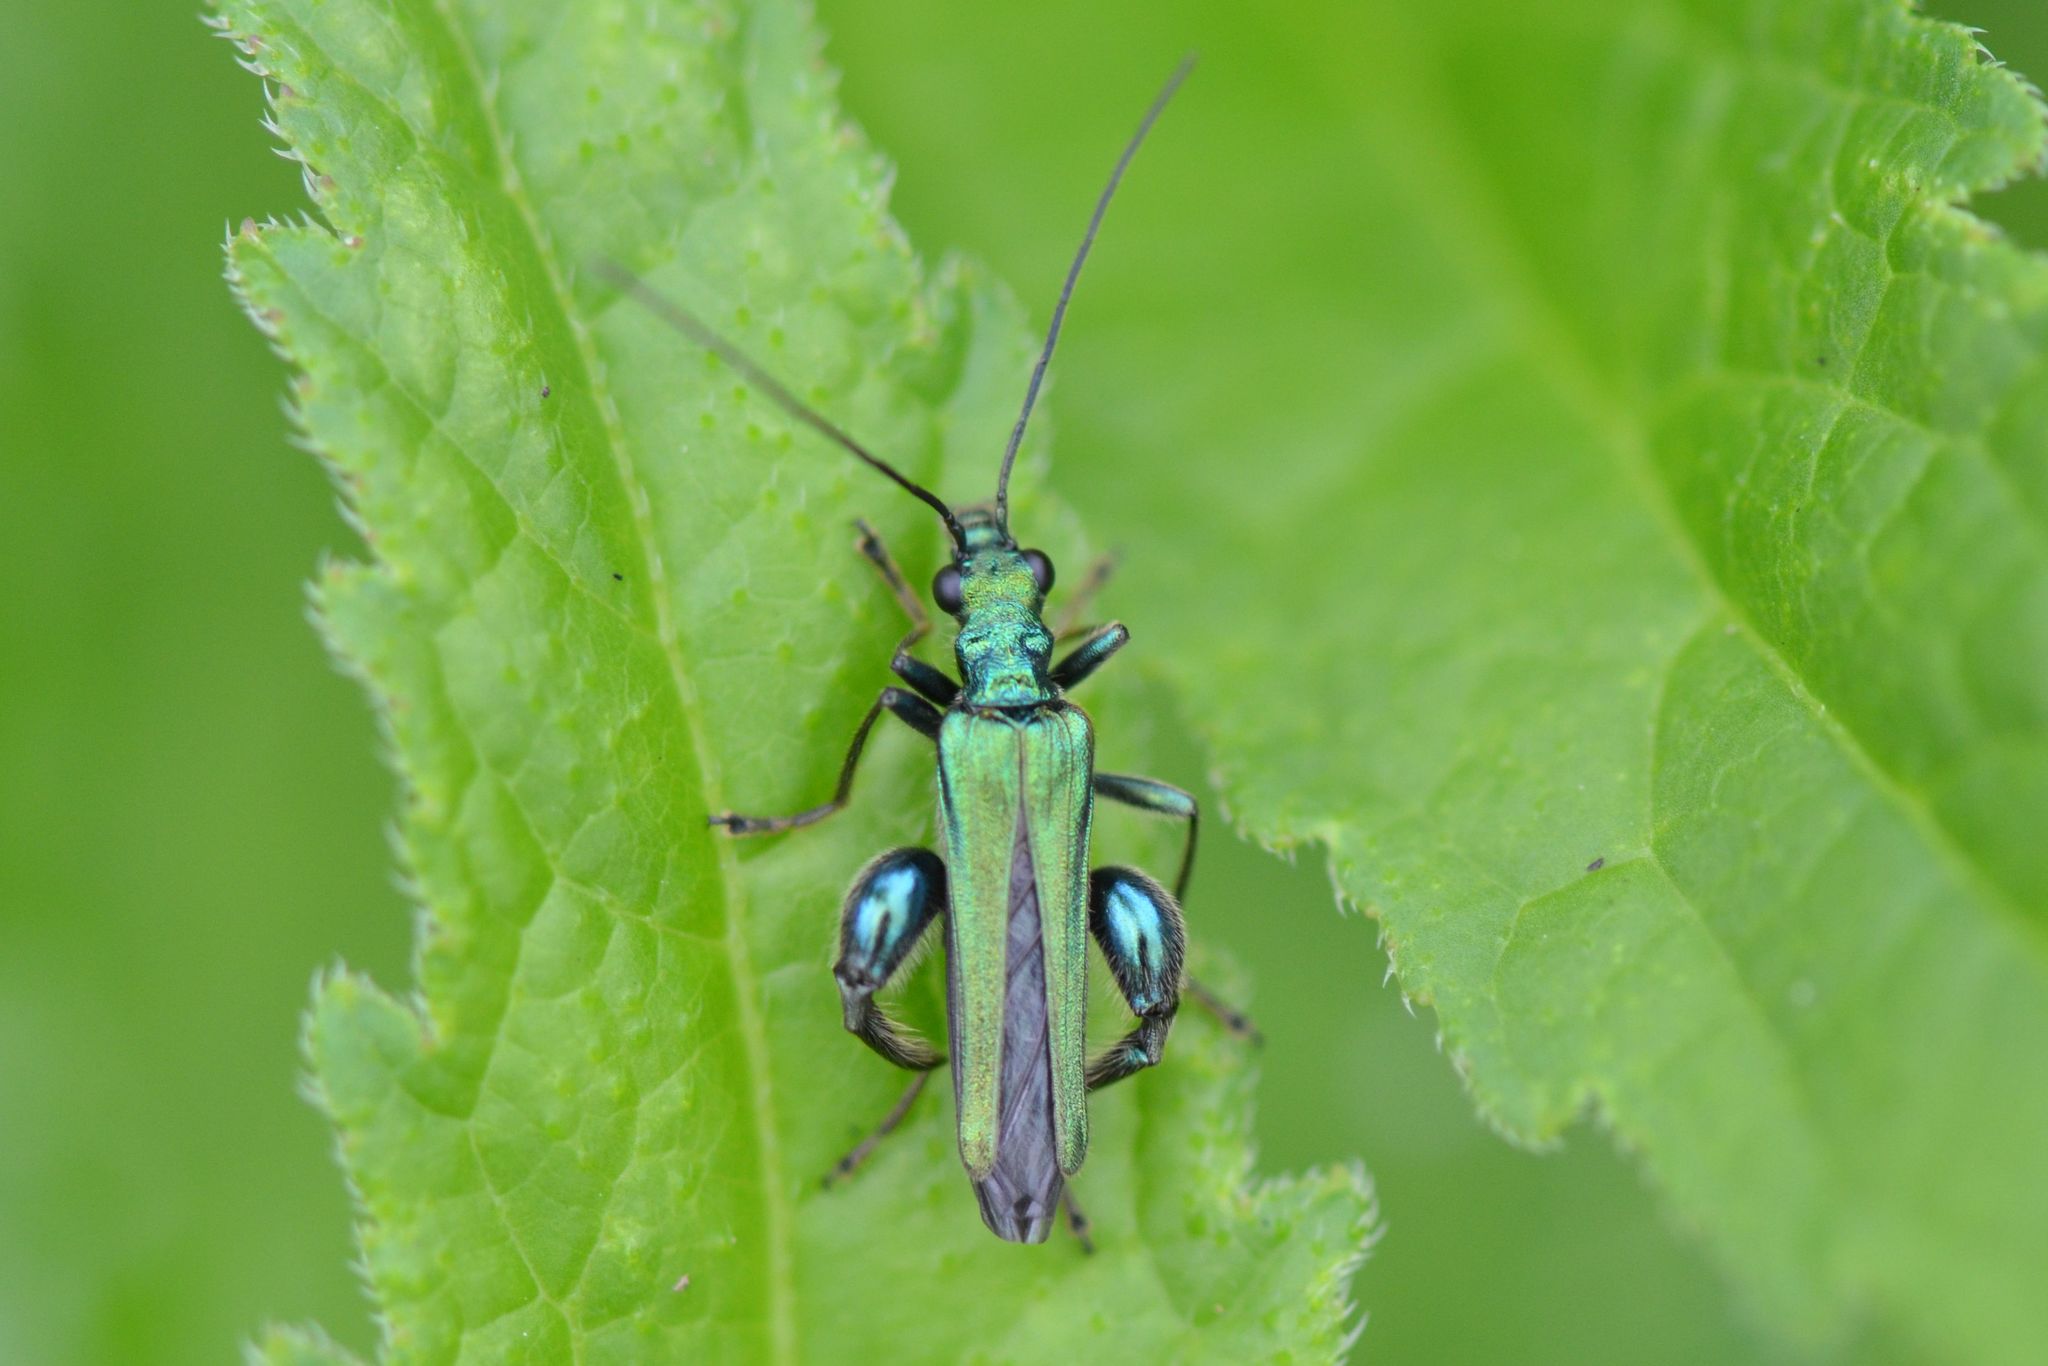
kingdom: Animalia
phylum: Arthropoda
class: Insecta
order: Coleoptera
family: Oedemeridae
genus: Oedemera
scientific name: Oedemera nobilis
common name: Swollen-thighed beetle
